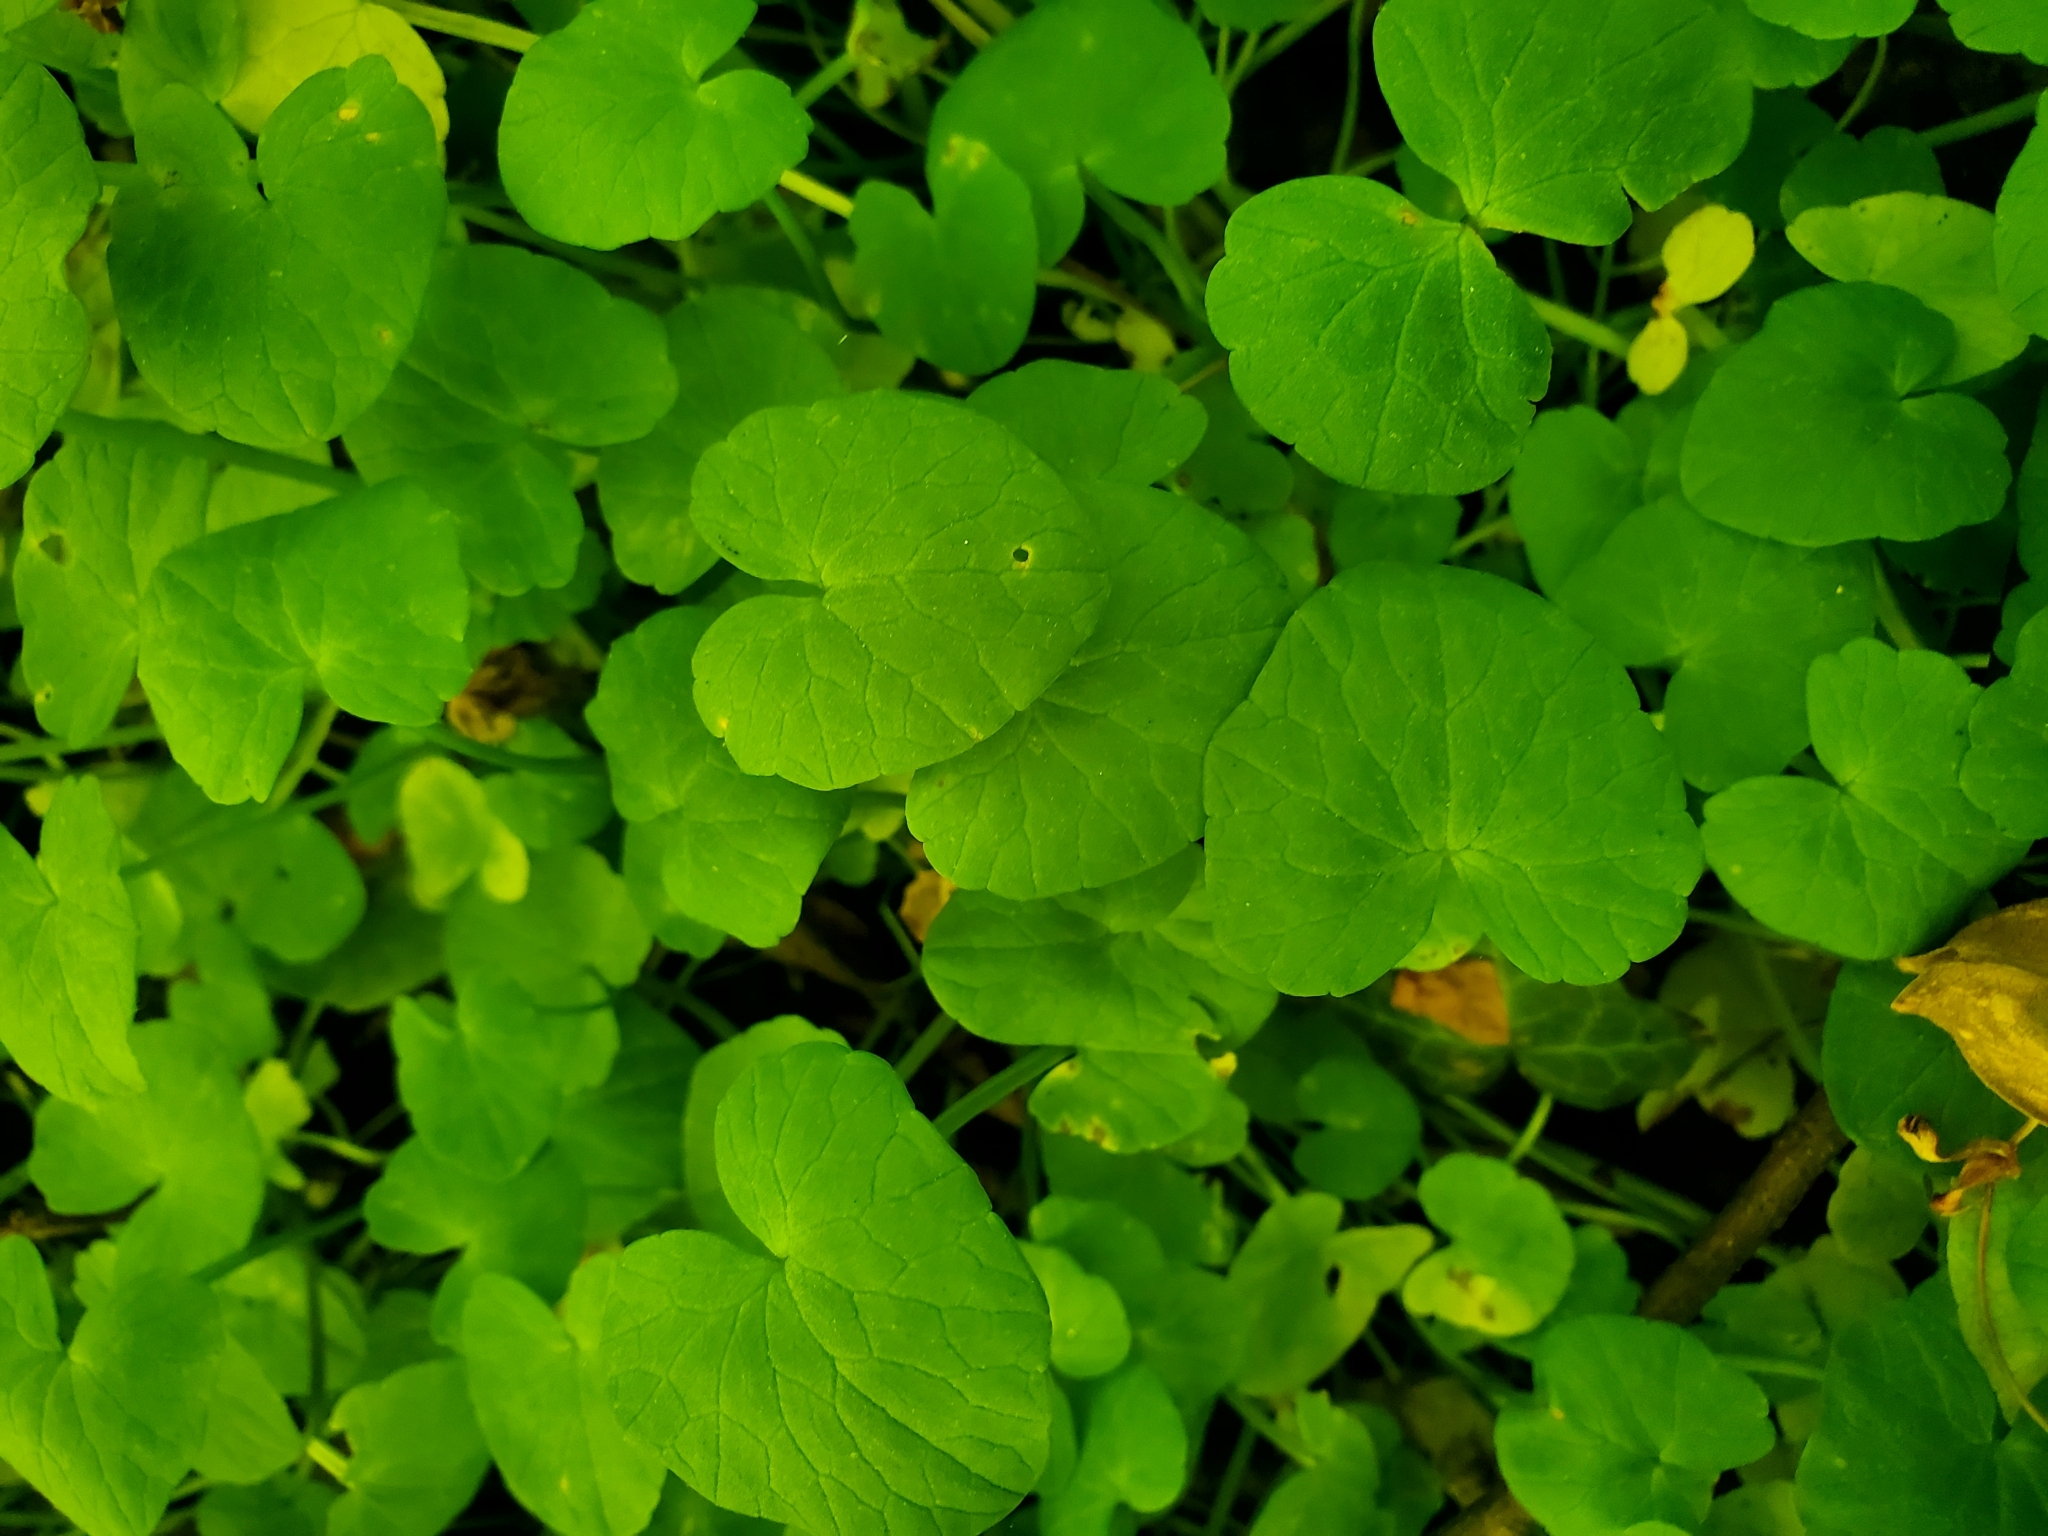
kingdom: Plantae
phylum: Tracheophyta
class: Magnoliopsida
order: Ranunculales
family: Ranunculaceae
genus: Ficaria
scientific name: Ficaria verna
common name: Lesser celandine
